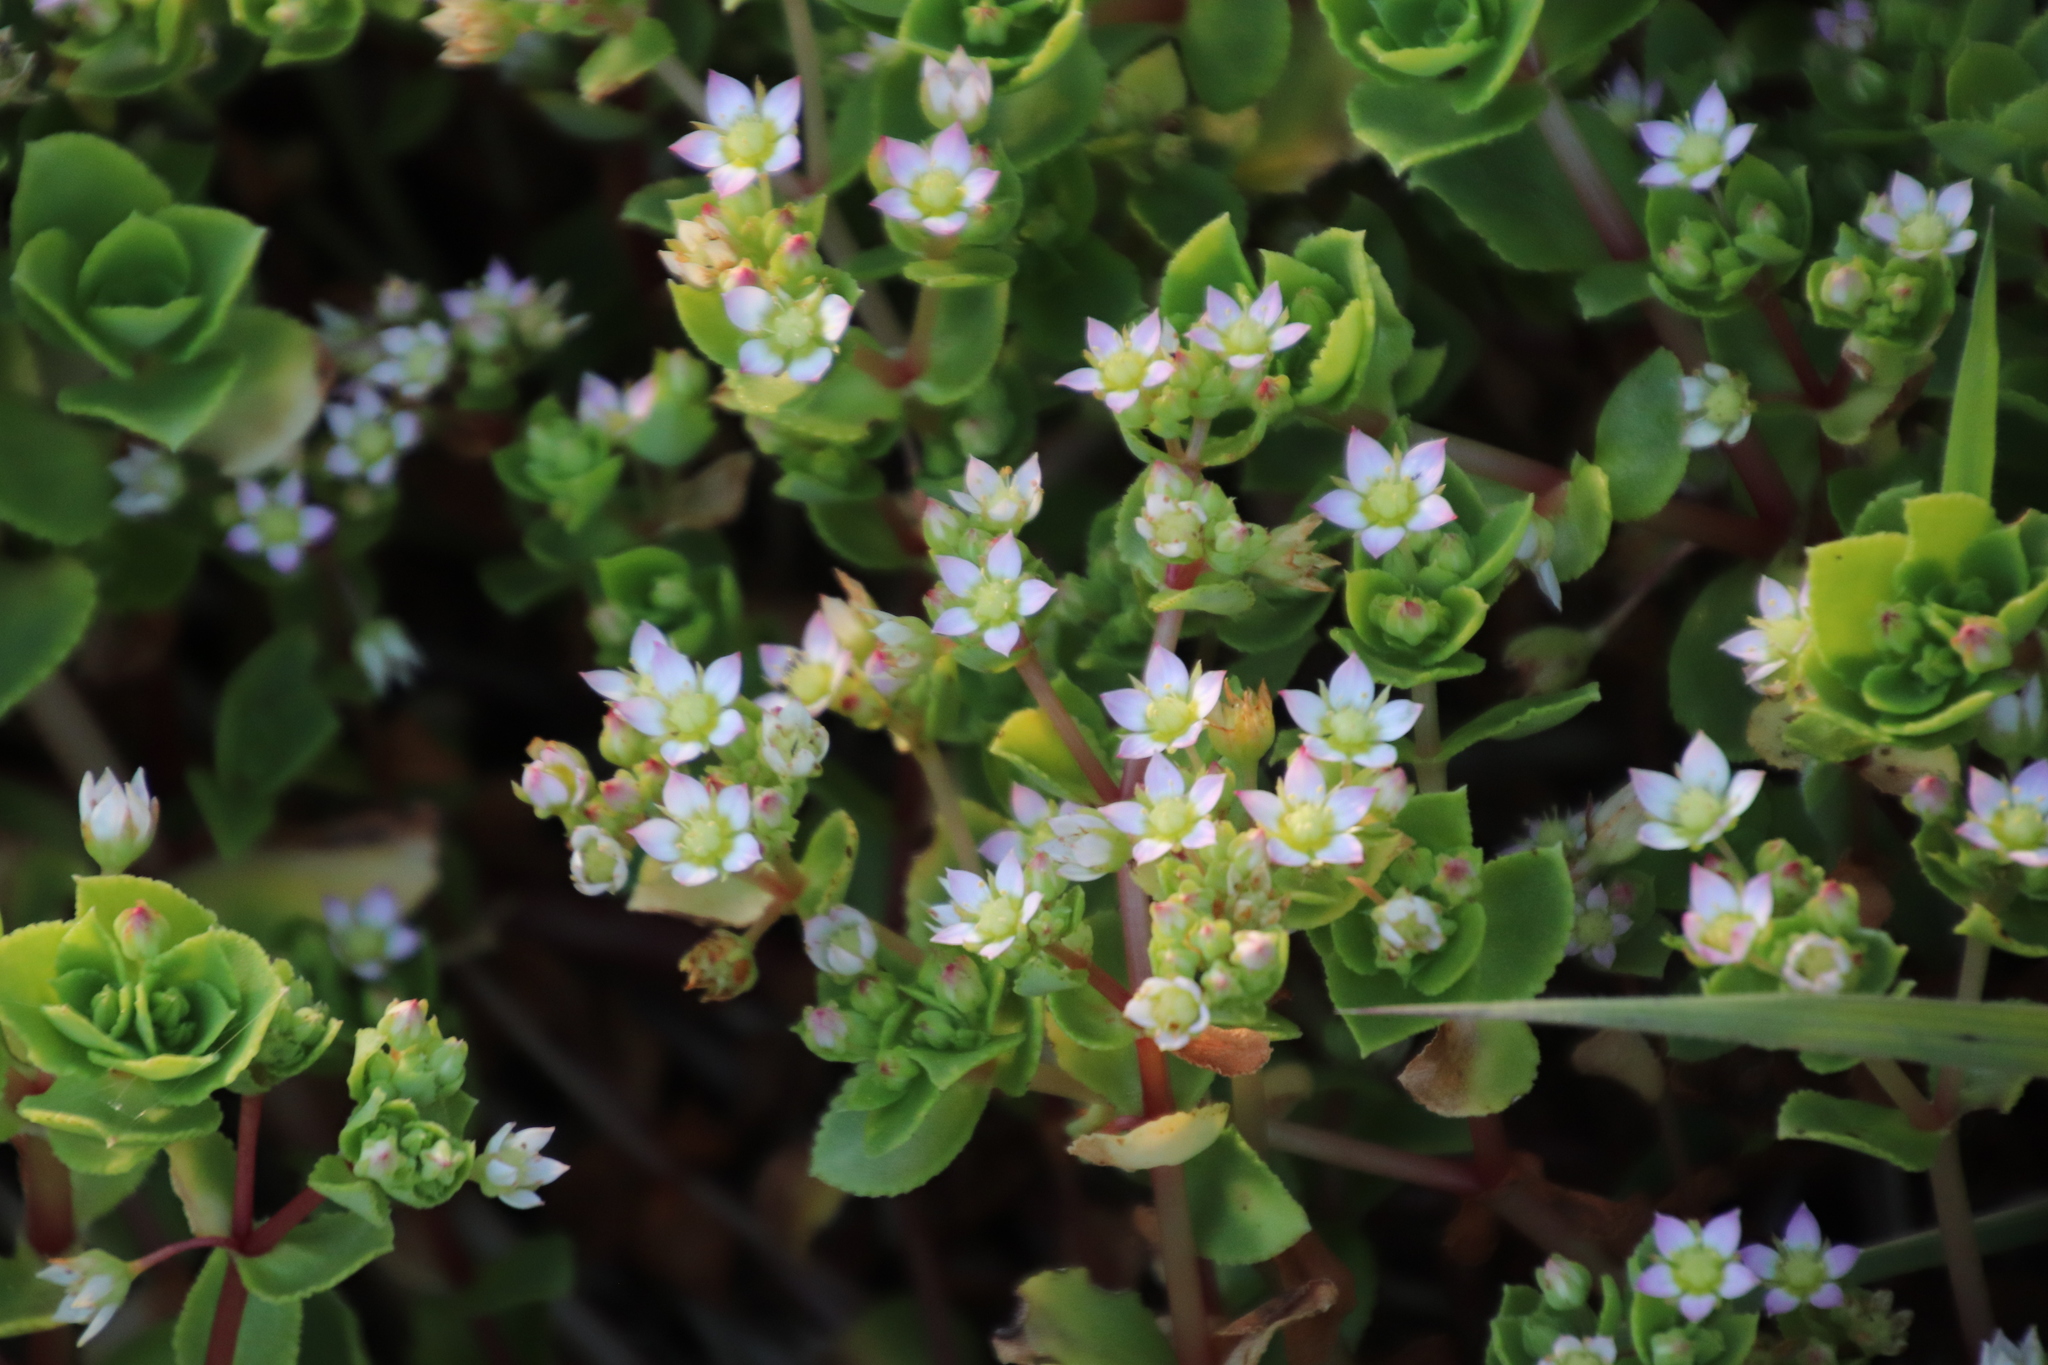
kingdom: Plantae
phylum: Tracheophyta
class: Magnoliopsida
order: Saxifragales
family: Crassulaceae
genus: Crassula
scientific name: Crassula pellucida
